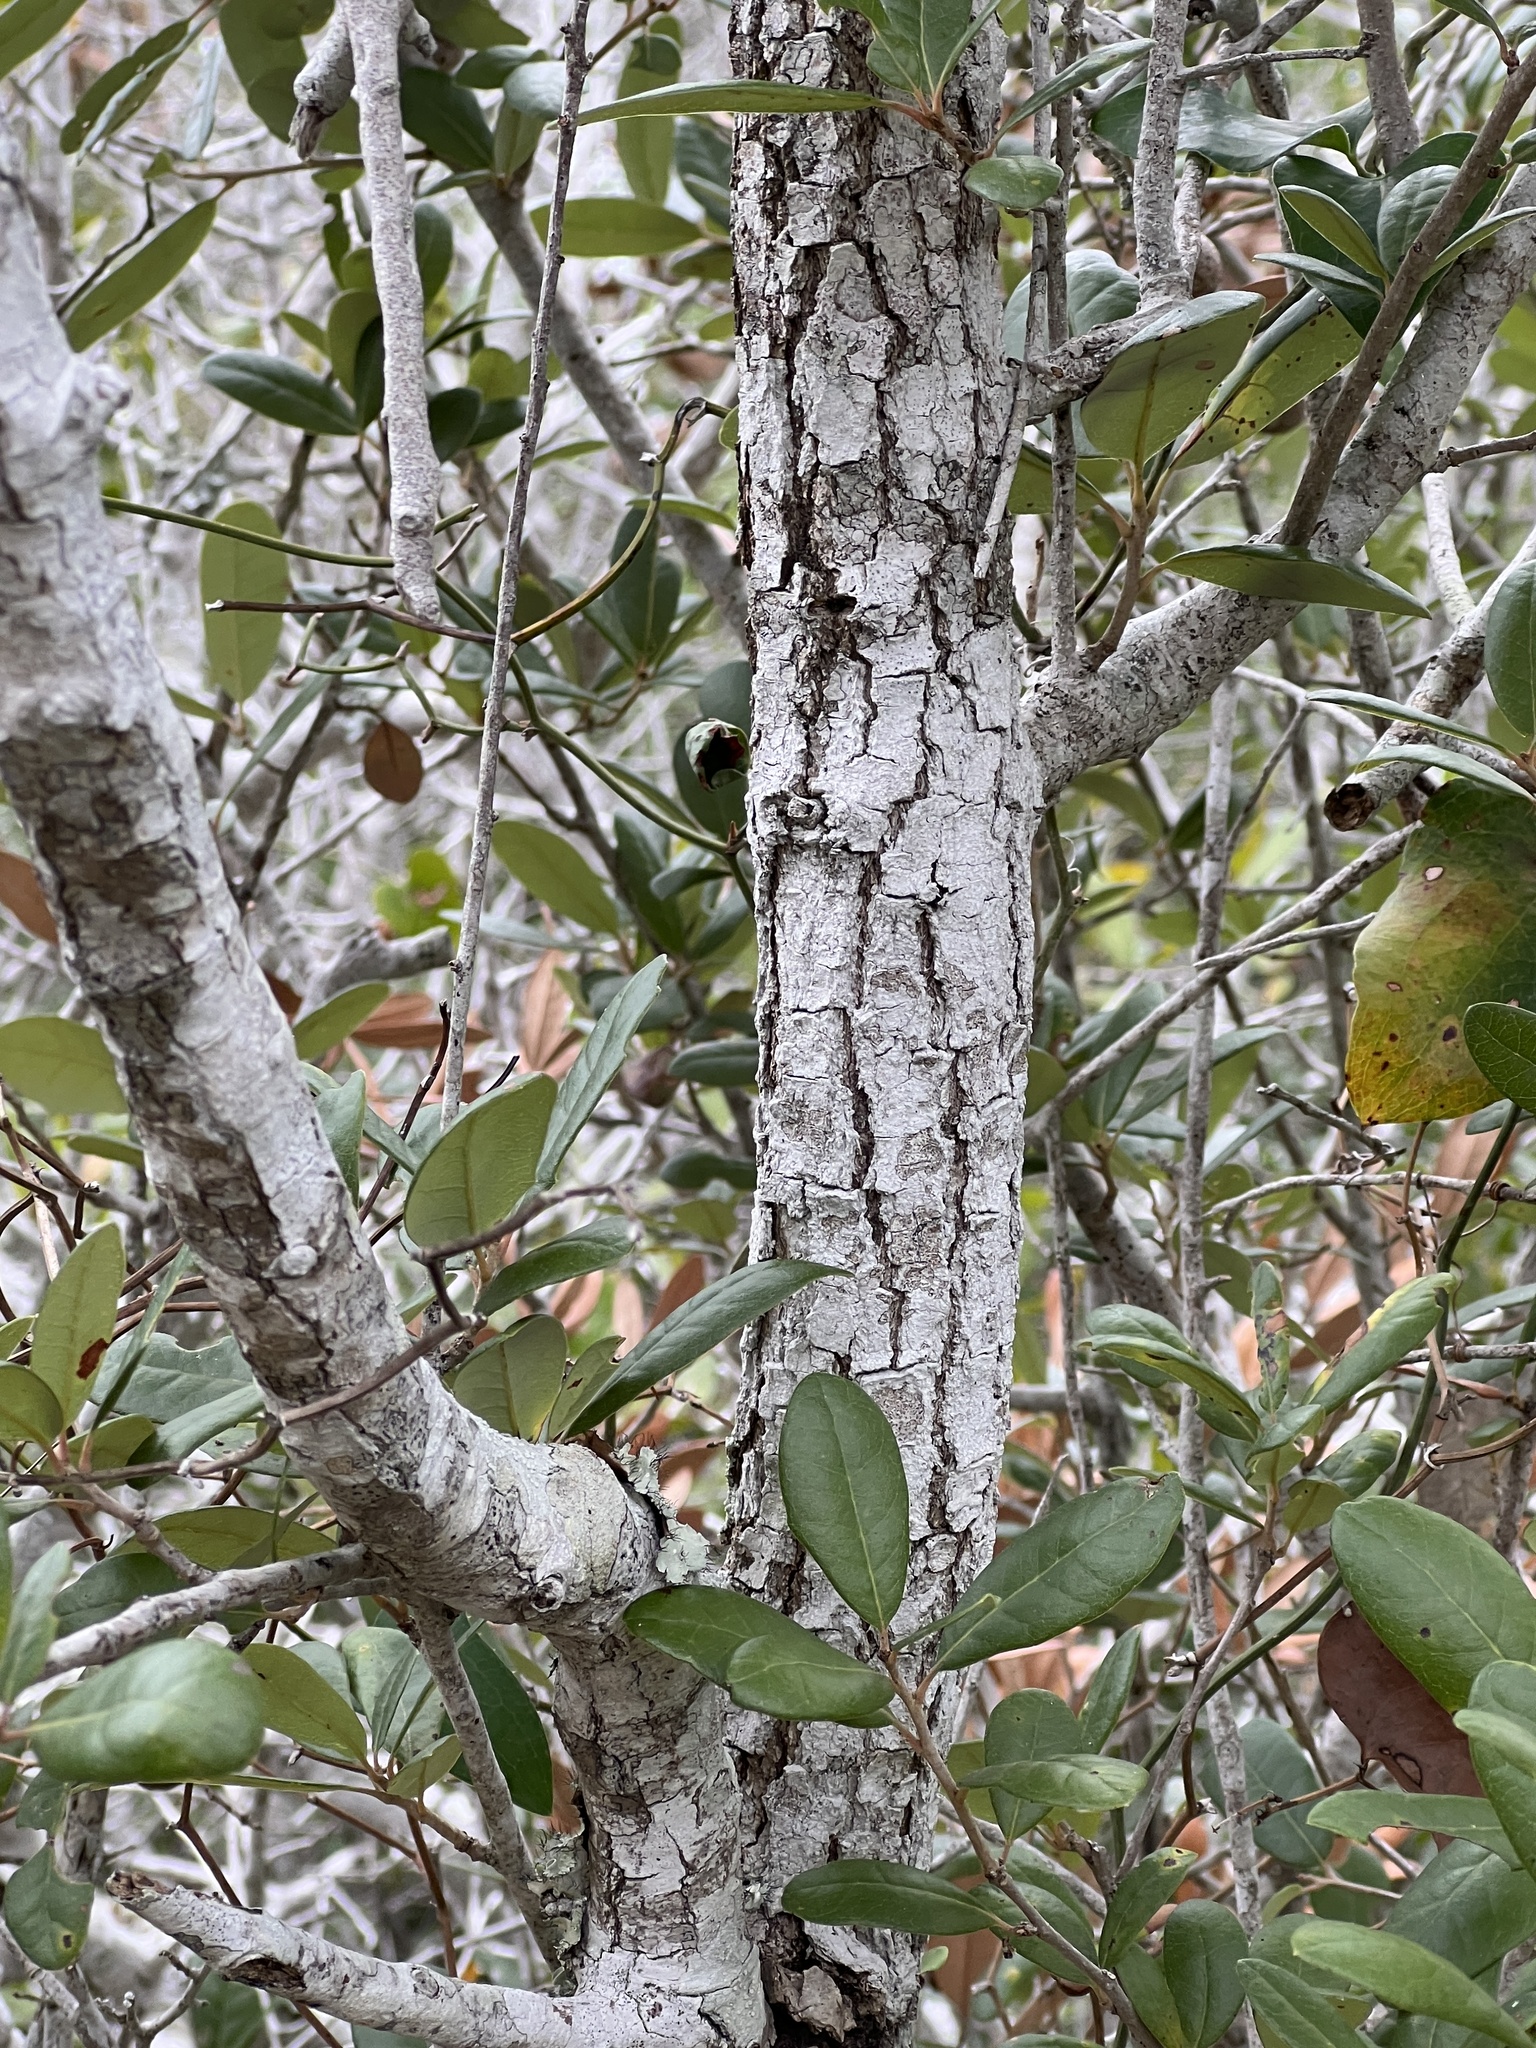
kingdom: Plantae
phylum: Tracheophyta
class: Magnoliopsida
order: Fagales
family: Fagaceae
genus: Quercus
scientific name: Quercus fusiformis
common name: Texas live oak
